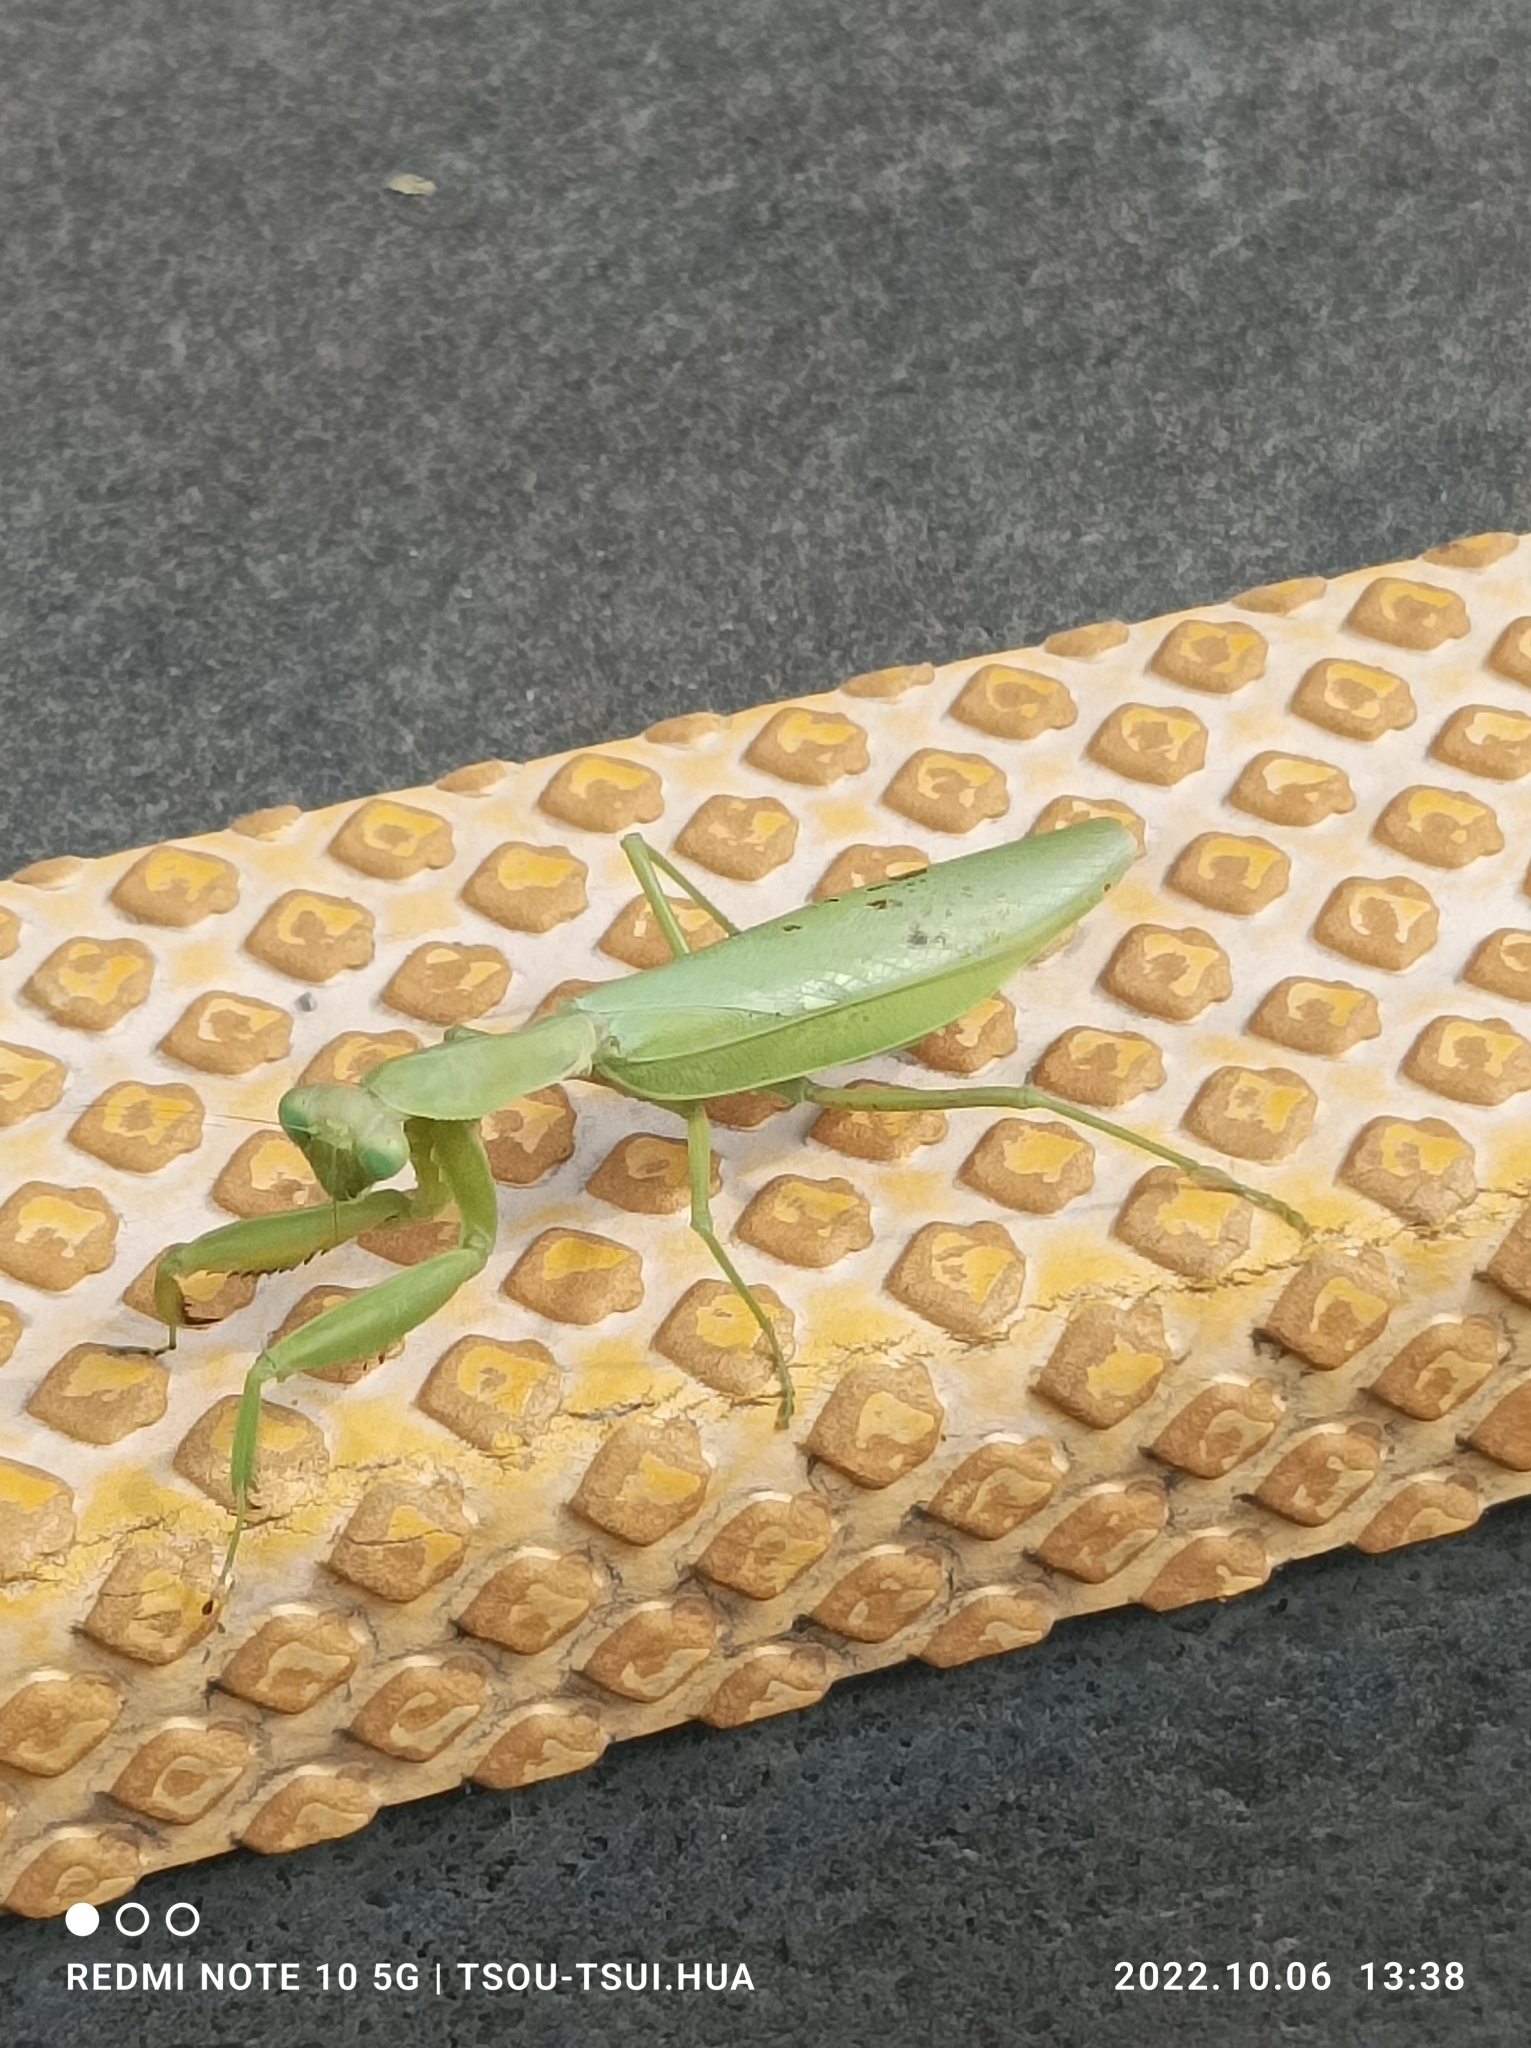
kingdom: Animalia
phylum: Arthropoda
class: Insecta
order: Mantodea
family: Mantidae
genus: Hierodula
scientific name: Hierodula patellifera
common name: Asian mantis
